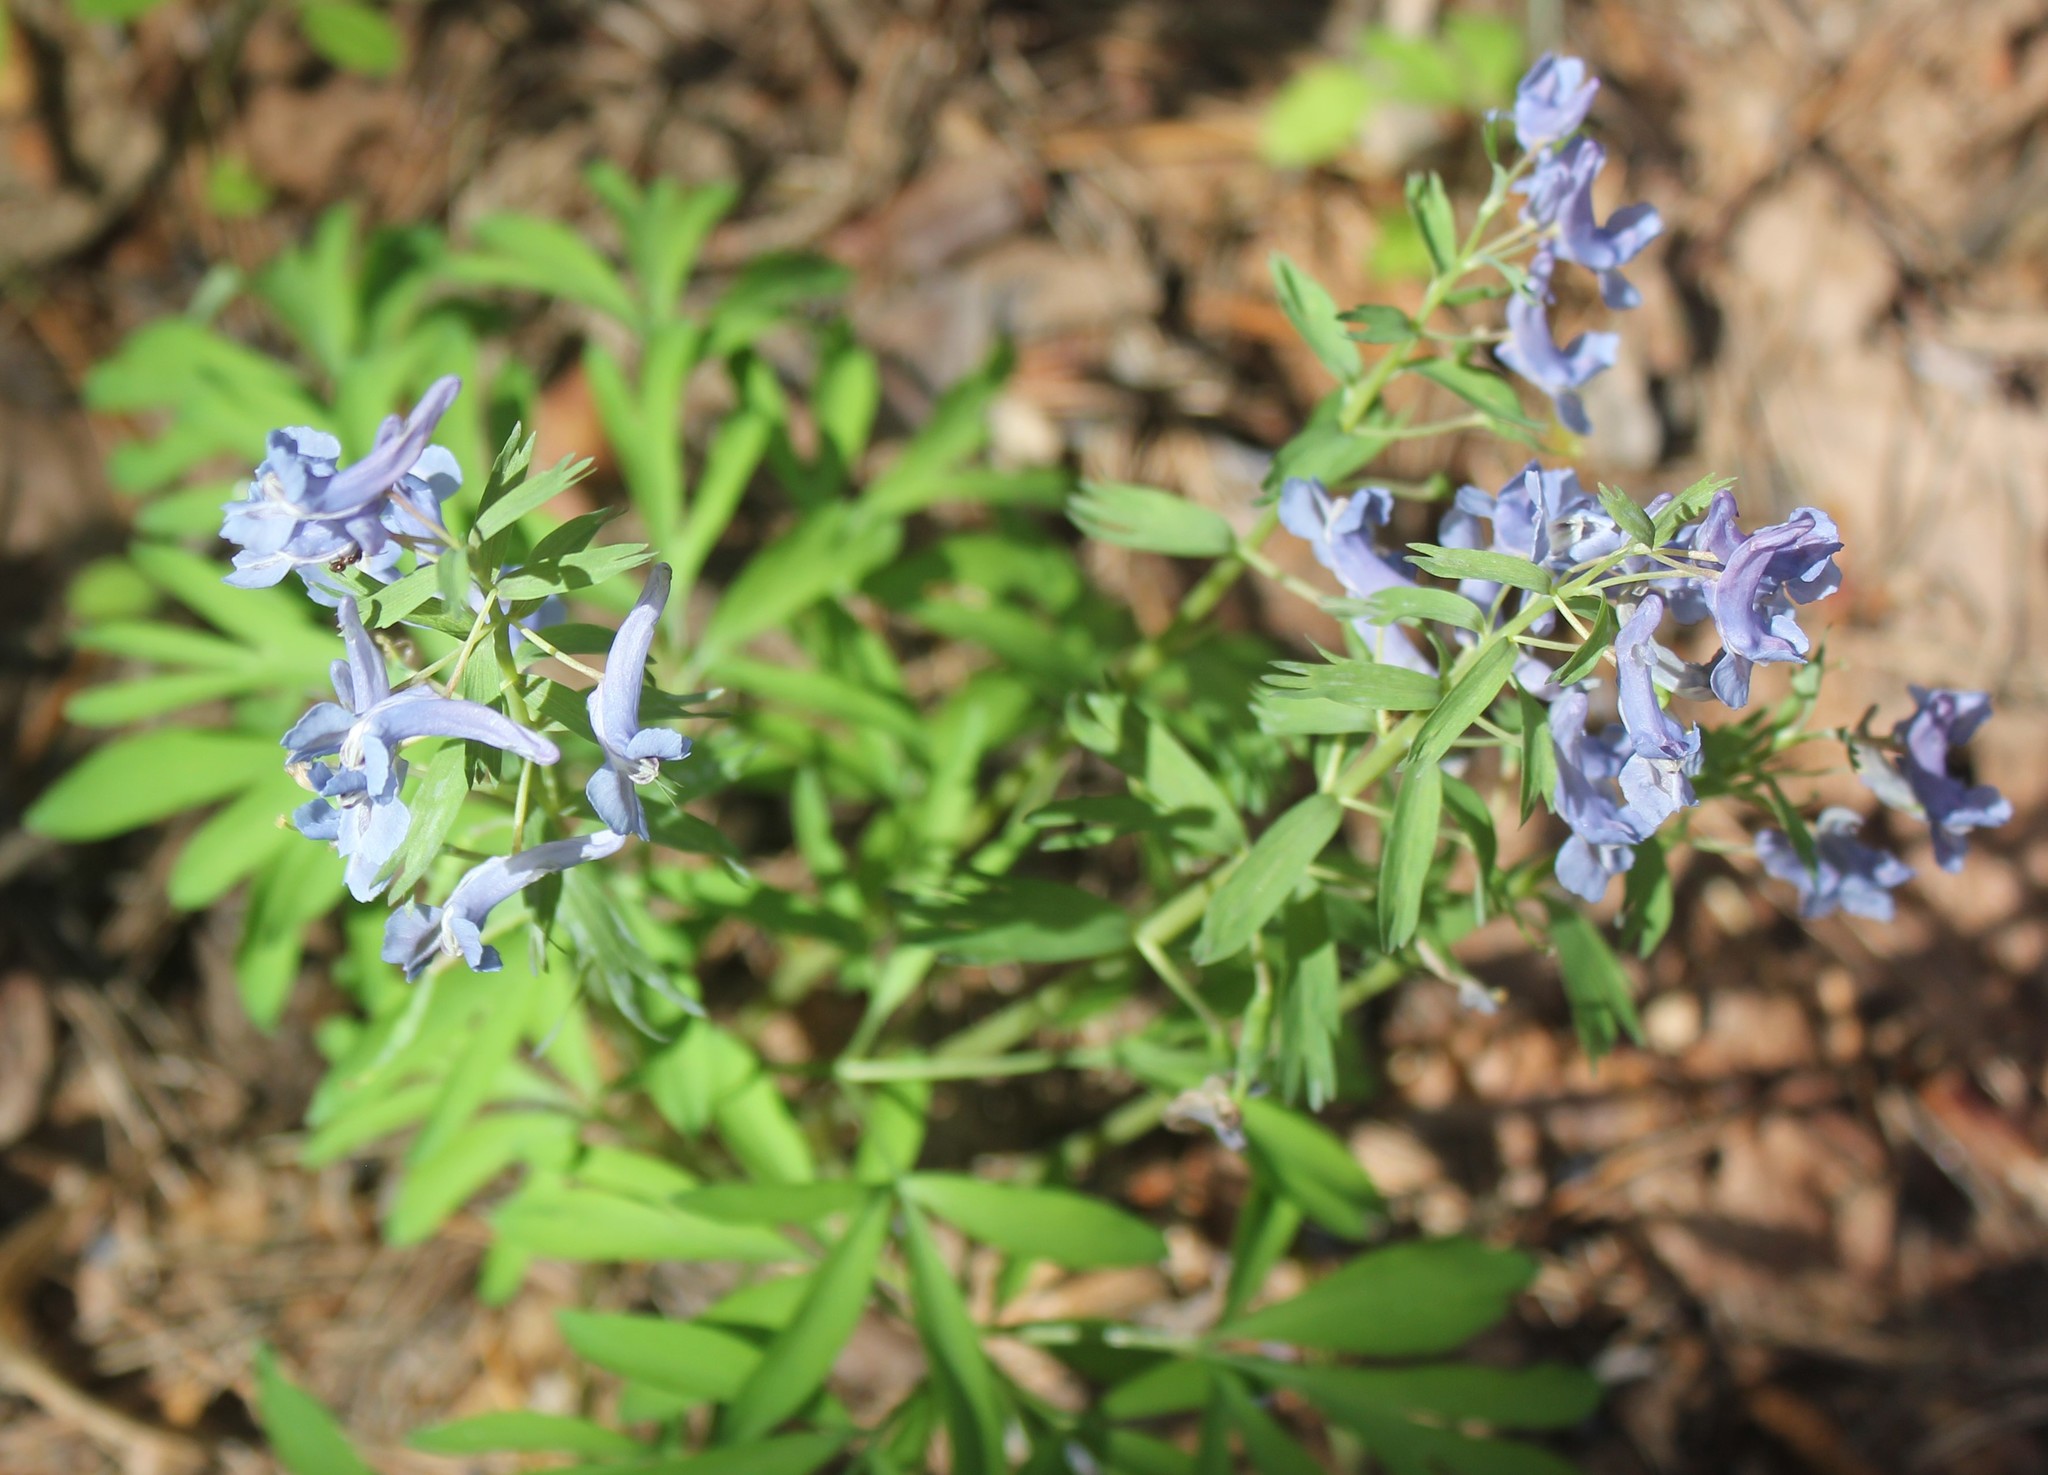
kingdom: Plantae
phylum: Tracheophyta
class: Magnoliopsida
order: Ranunculales
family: Papaveraceae
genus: Corydalis
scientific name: Corydalis solida
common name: Bird-in-a-bush
